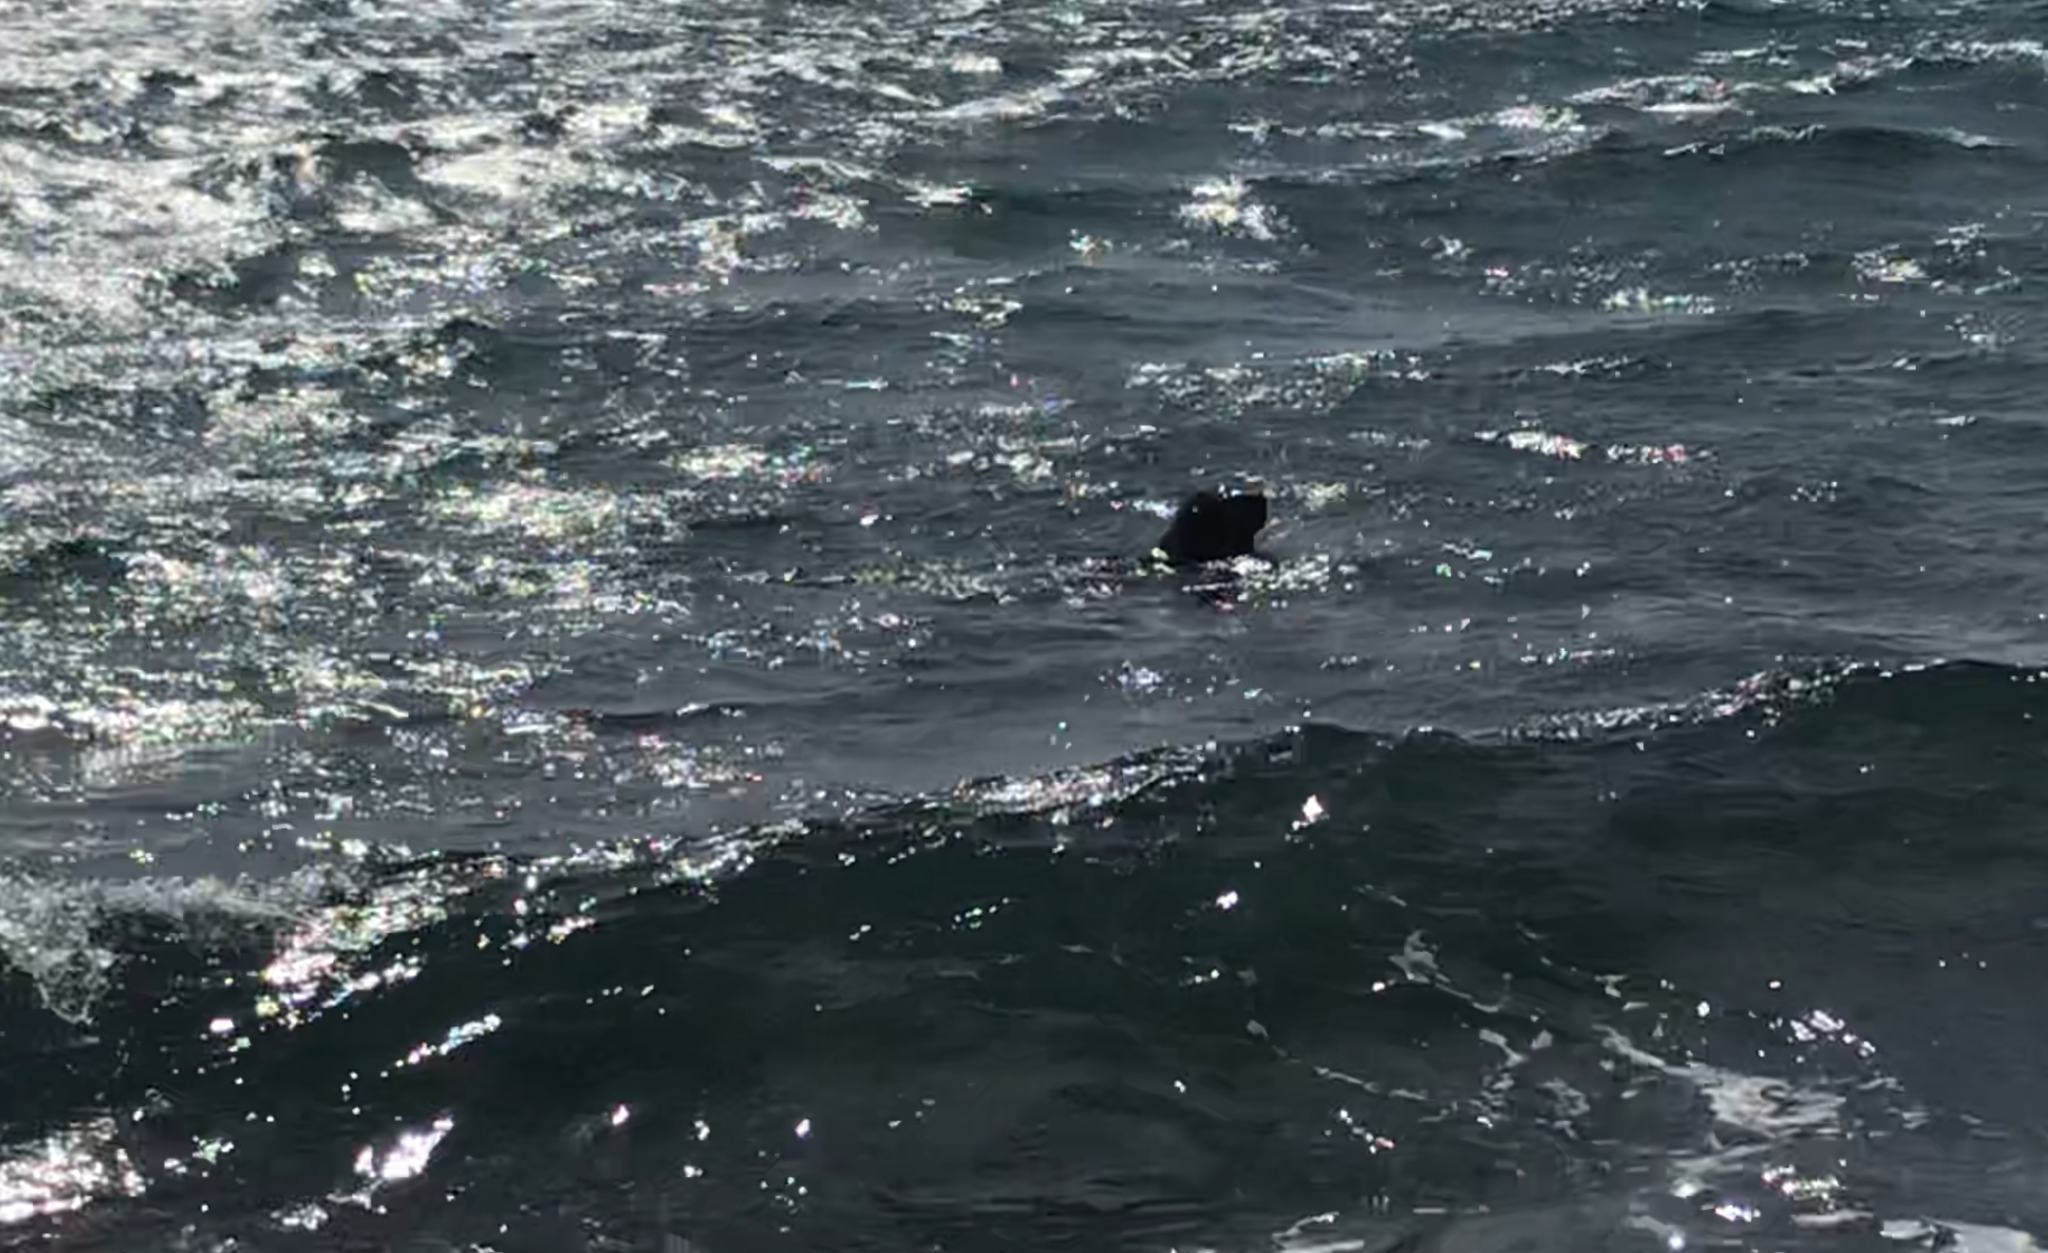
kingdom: Animalia
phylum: Chordata
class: Mammalia
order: Carnivora
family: Otariidae
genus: Arctocephalus
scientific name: Arctocephalus forsteri
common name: New zealand fur seal
